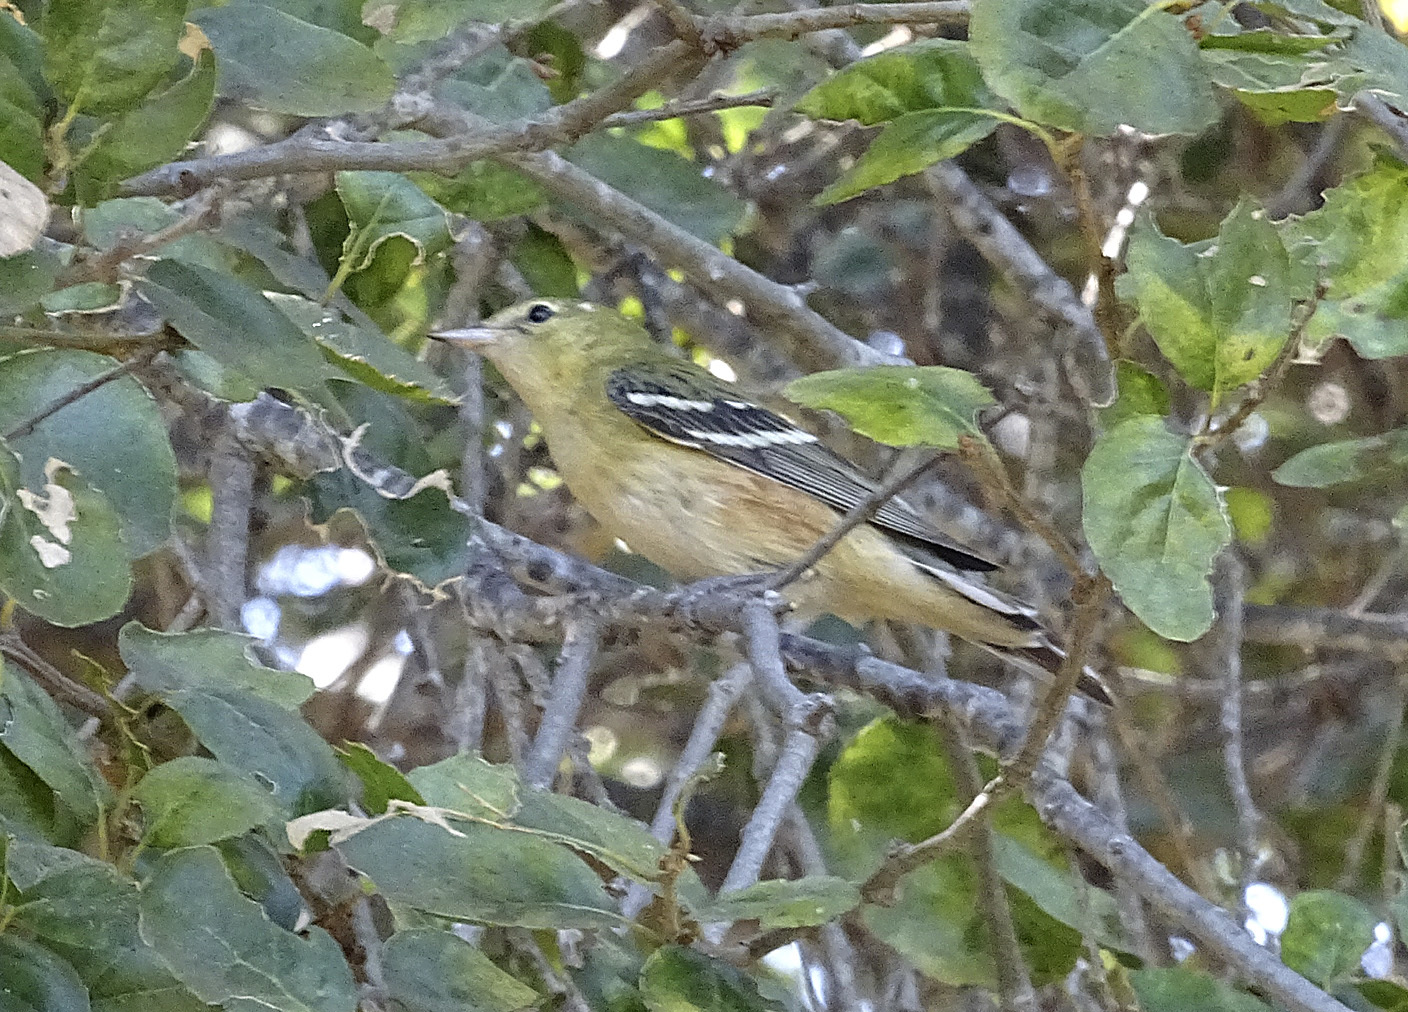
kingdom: Animalia
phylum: Chordata
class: Aves
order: Passeriformes
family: Parulidae
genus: Setophaga
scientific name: Setophaga castanea
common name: Bay-breasted warbler
